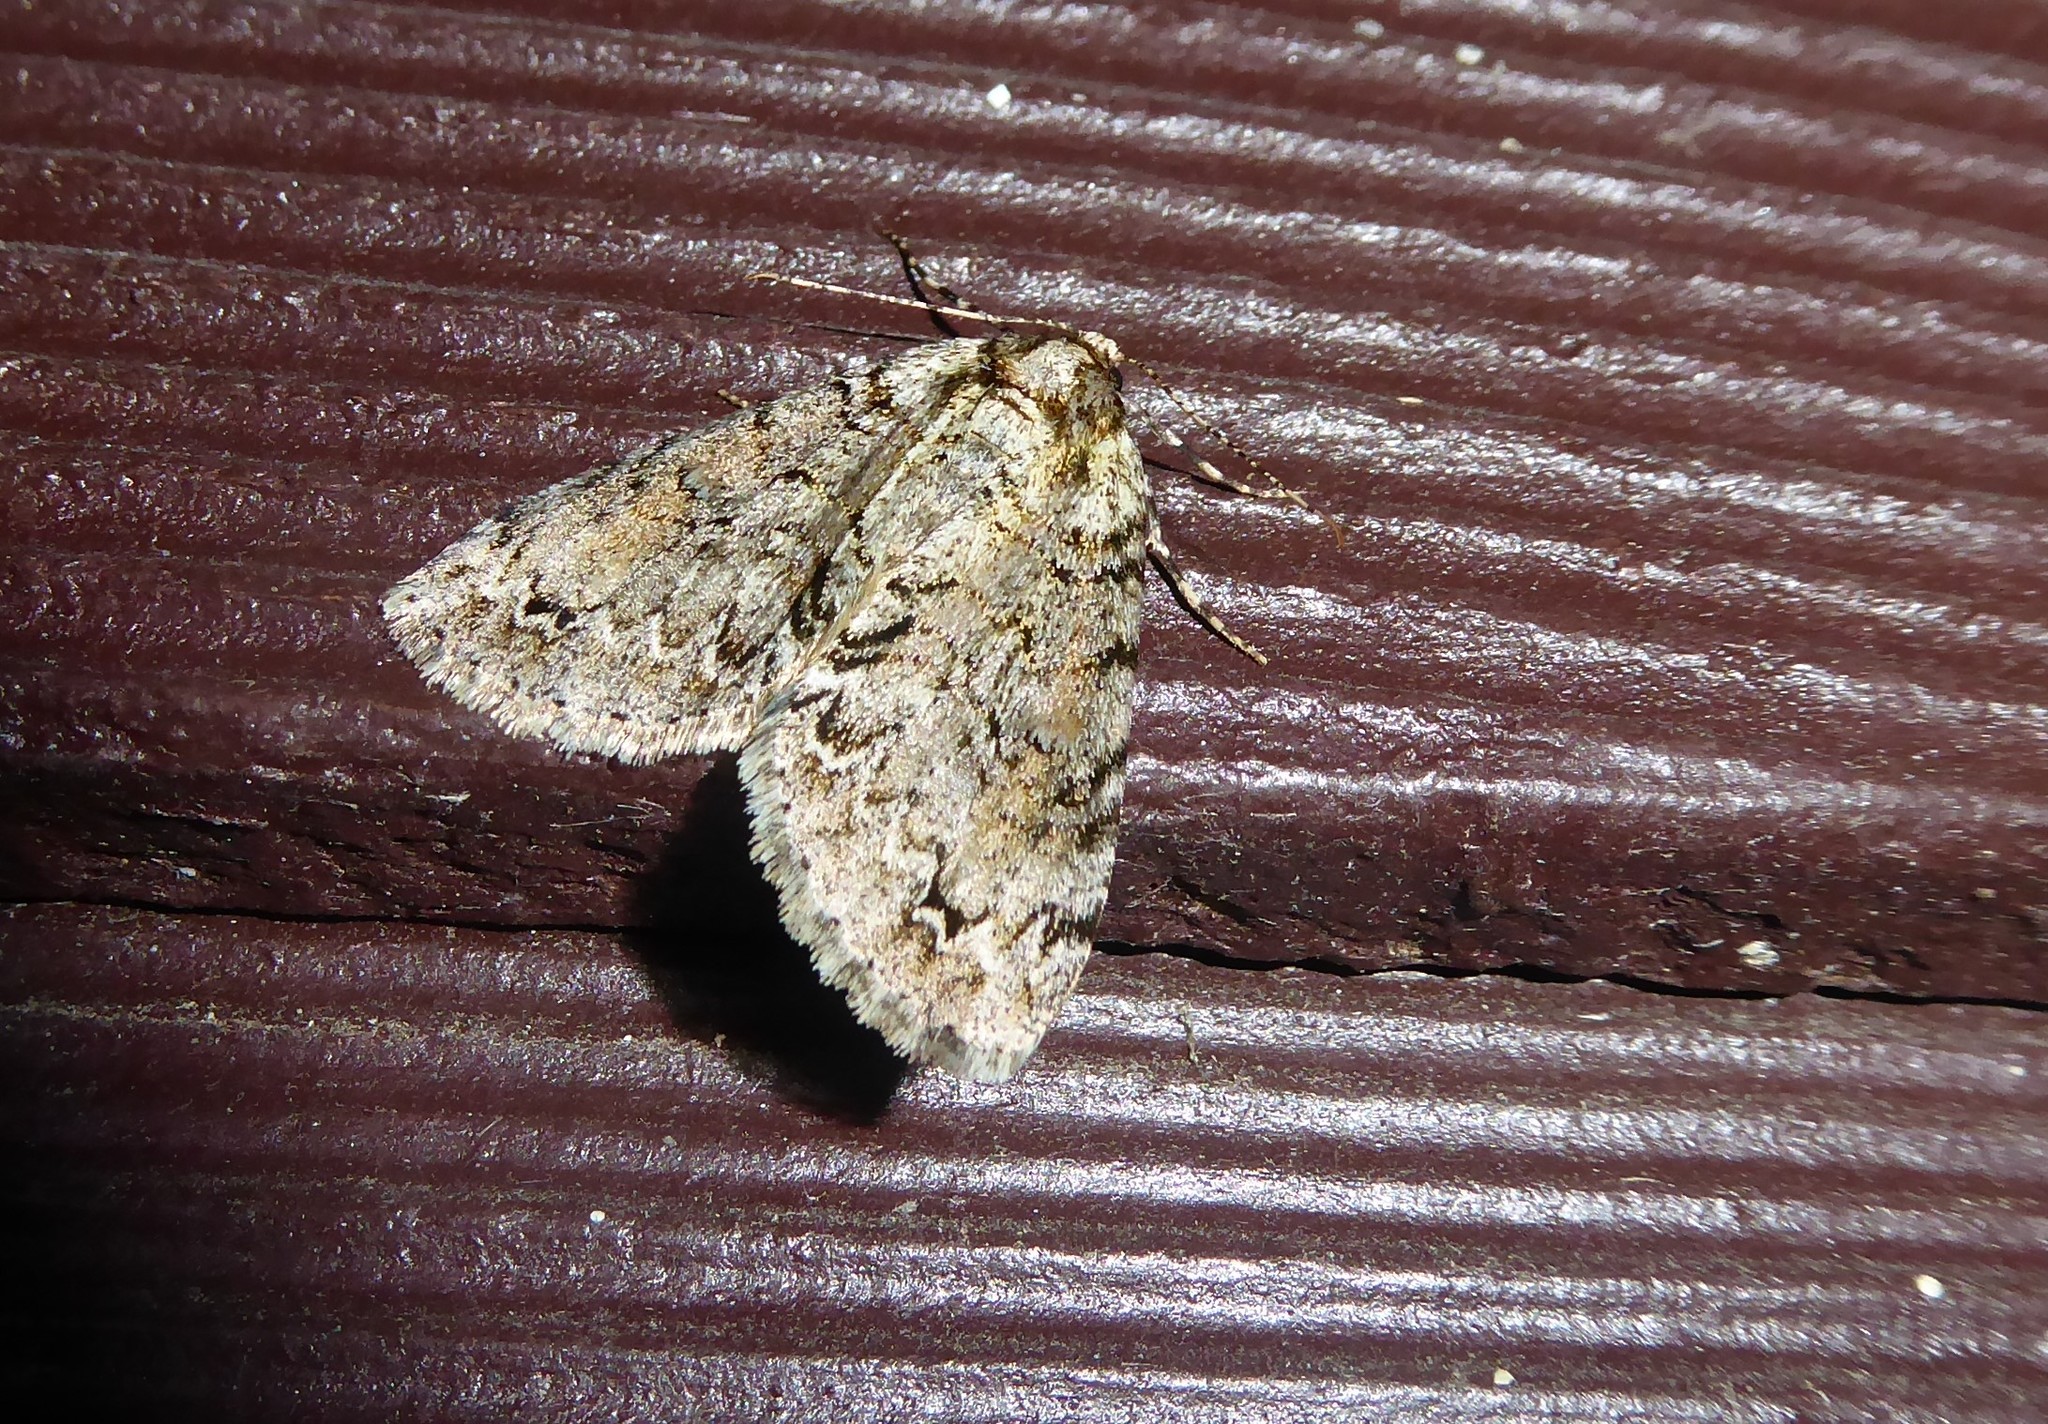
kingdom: Animalia
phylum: Arthropoda
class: Insecta
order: Lepidoptera
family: Geometridae
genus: Pseudocoremia
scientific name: Pseudocoremia suavis
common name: Common forest looper
